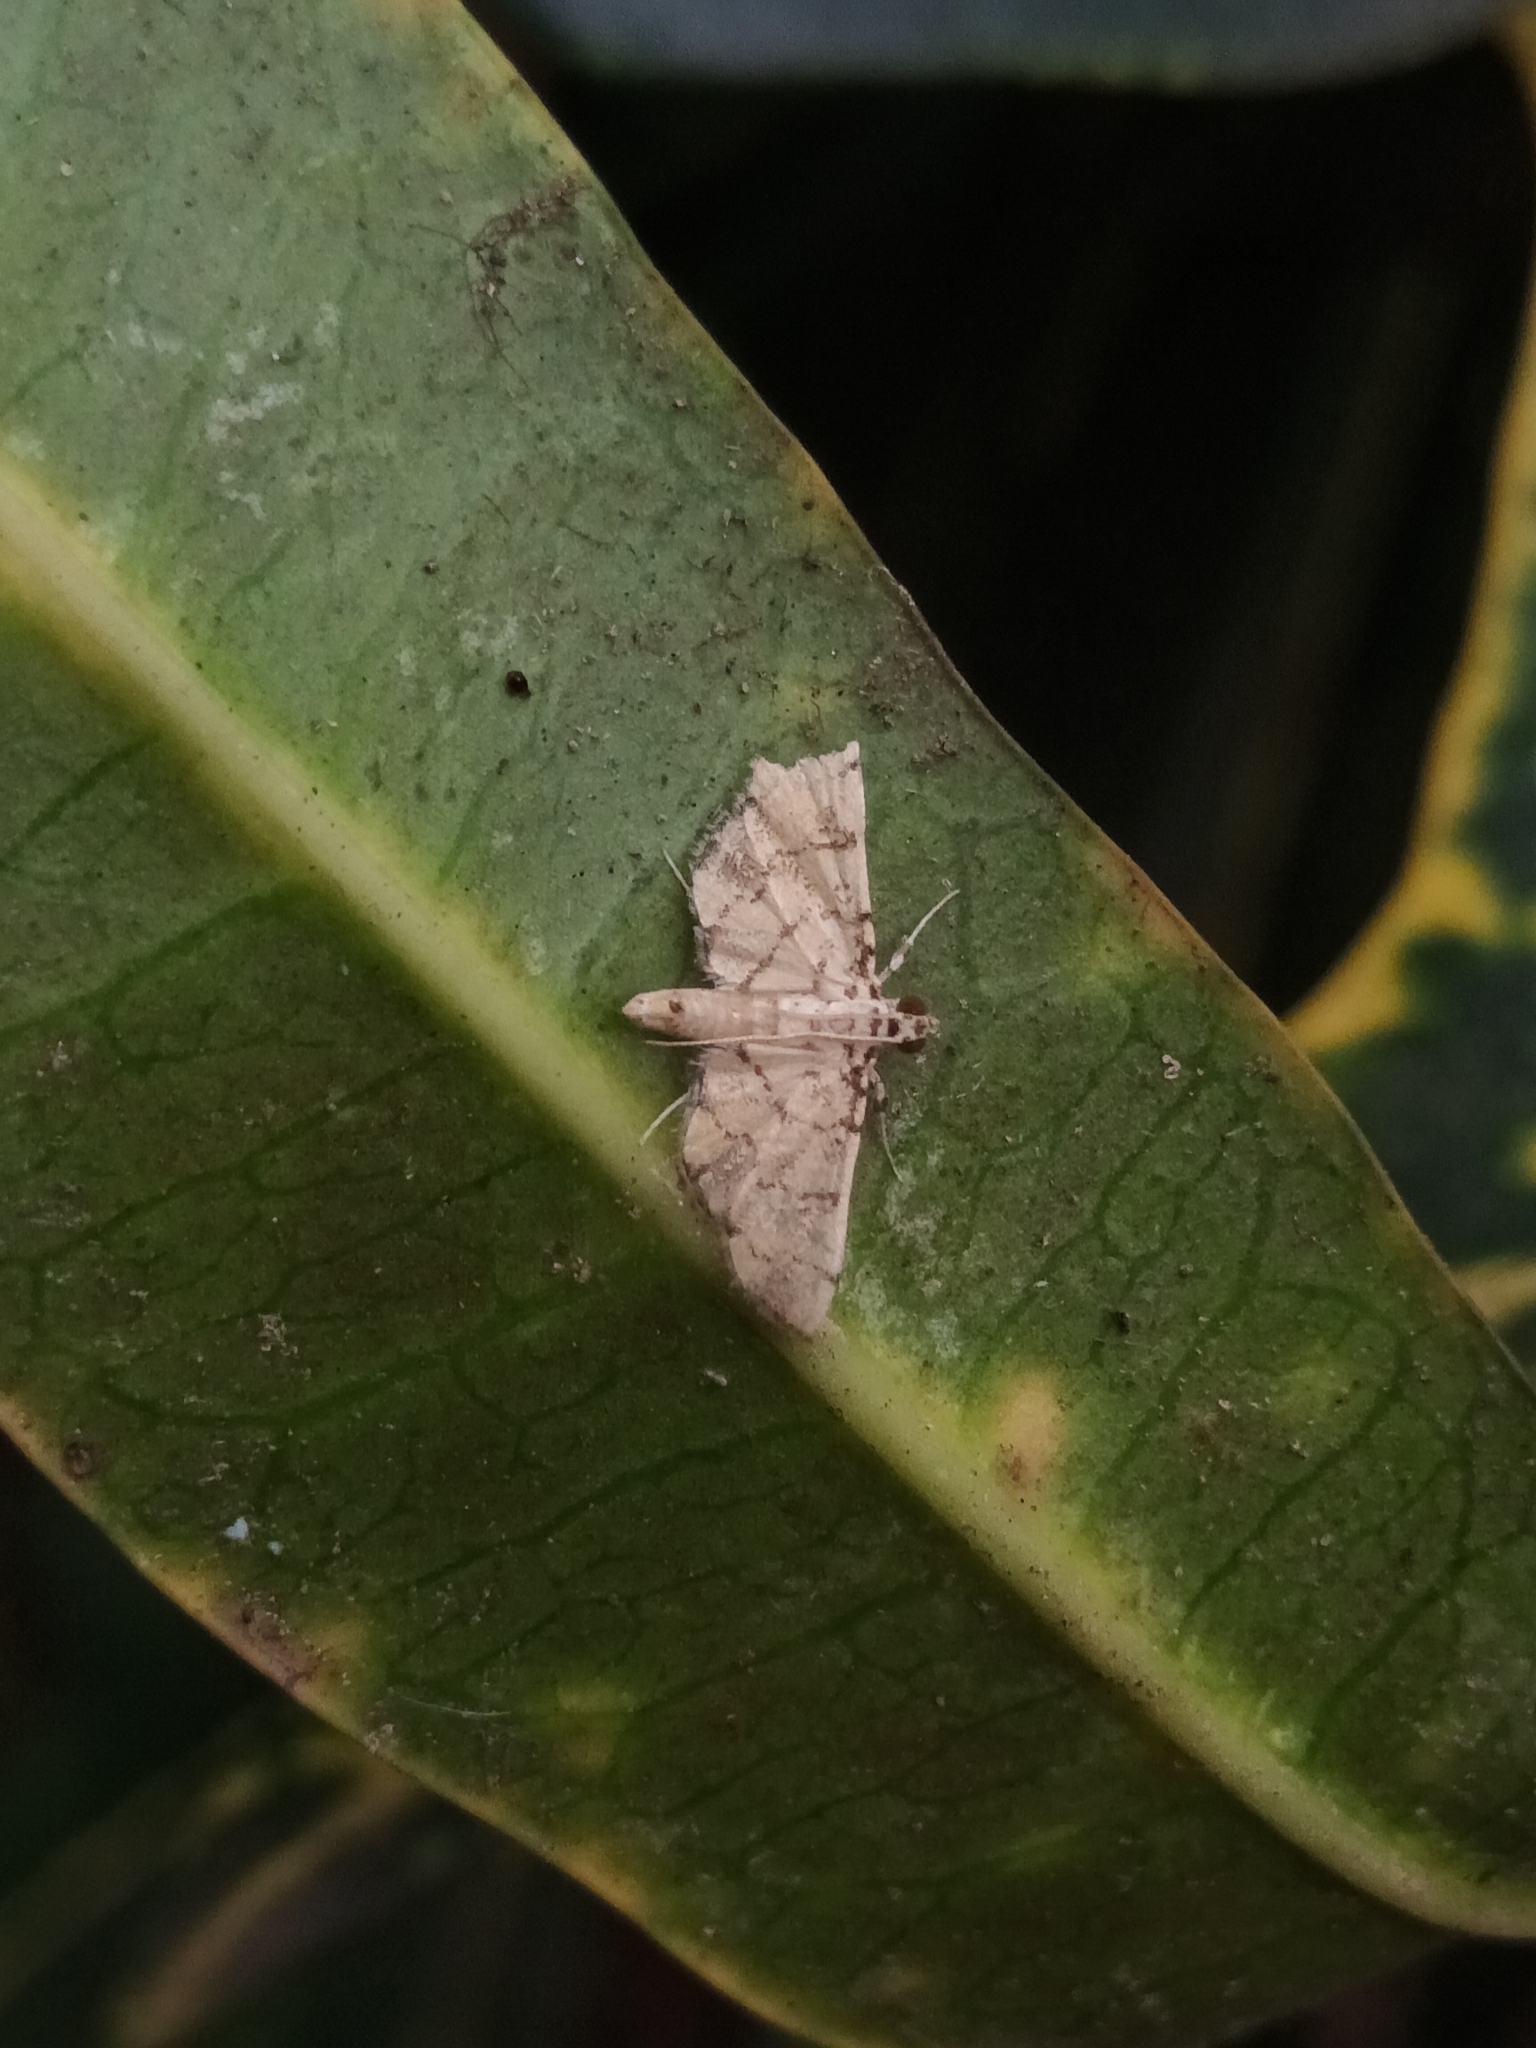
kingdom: Animalia
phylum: Arthropoda
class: Insecta
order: Lepidoptera
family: Crambidae
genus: Lamprosema
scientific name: Lamprosema tampiusalis
